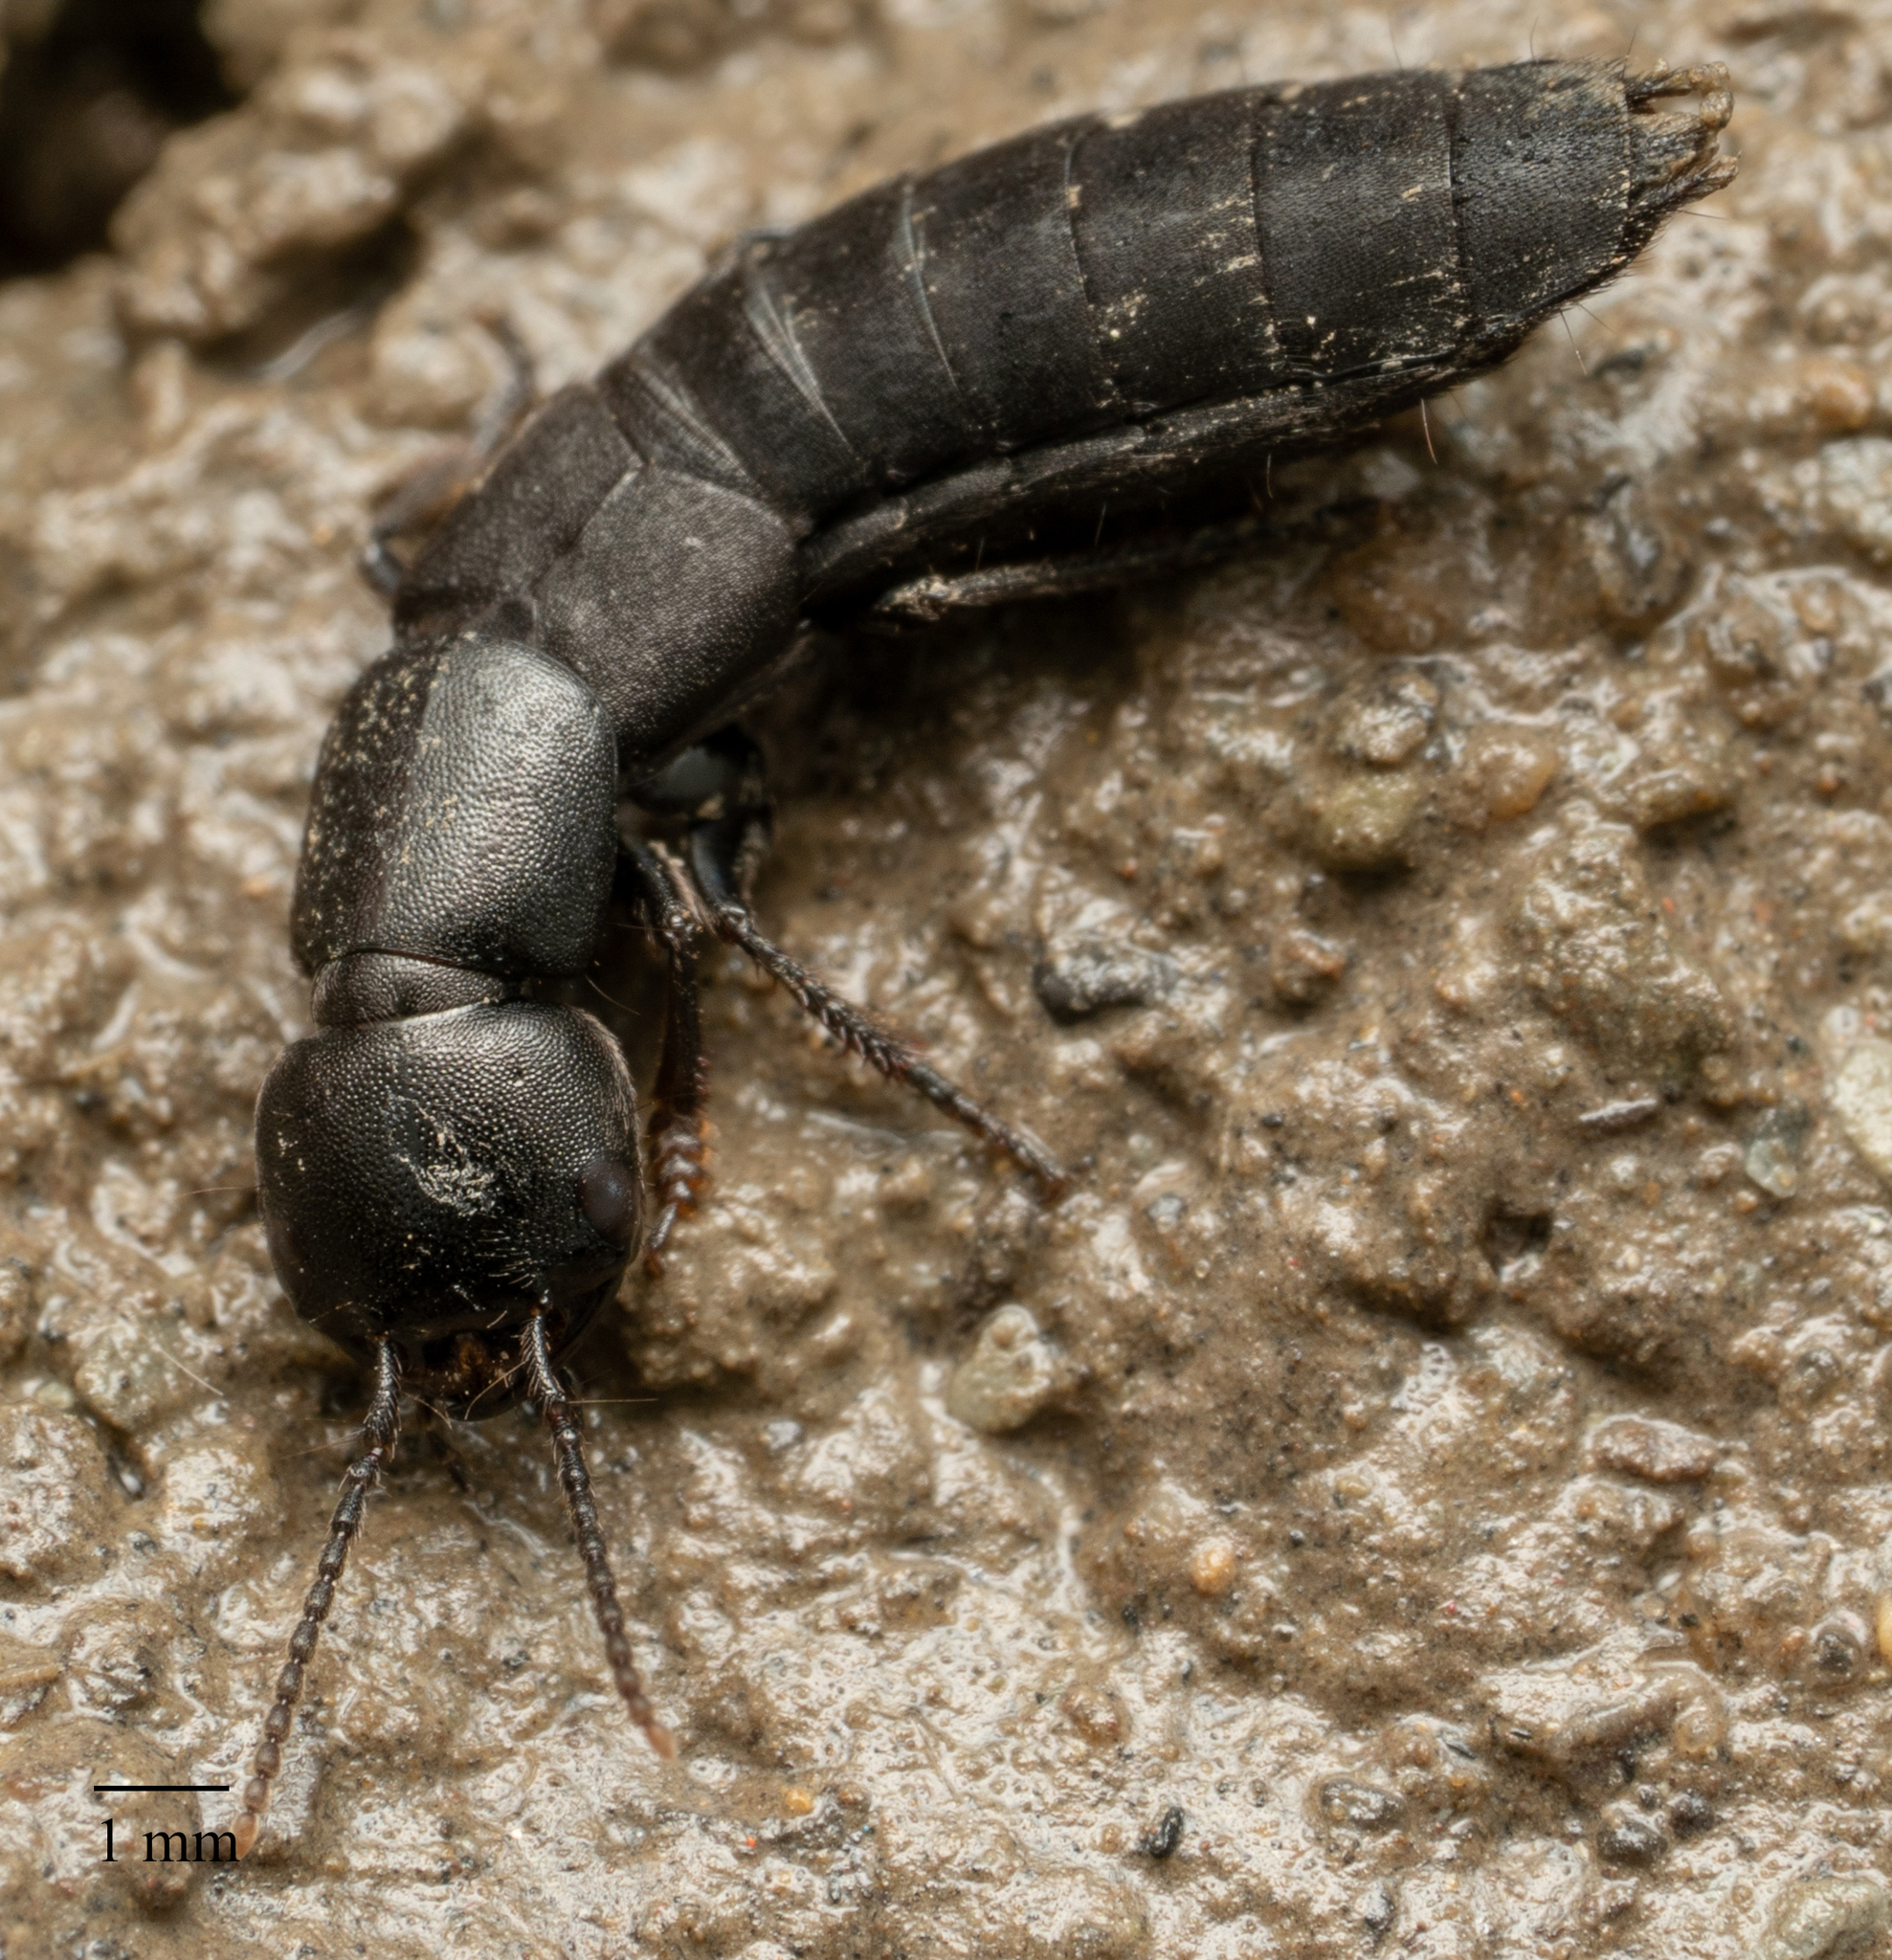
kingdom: Animalia
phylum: Arthropoda
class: Insecta
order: Coleoptera
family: Staphylinidae
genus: Ocypus
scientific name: Ocypus nitens
